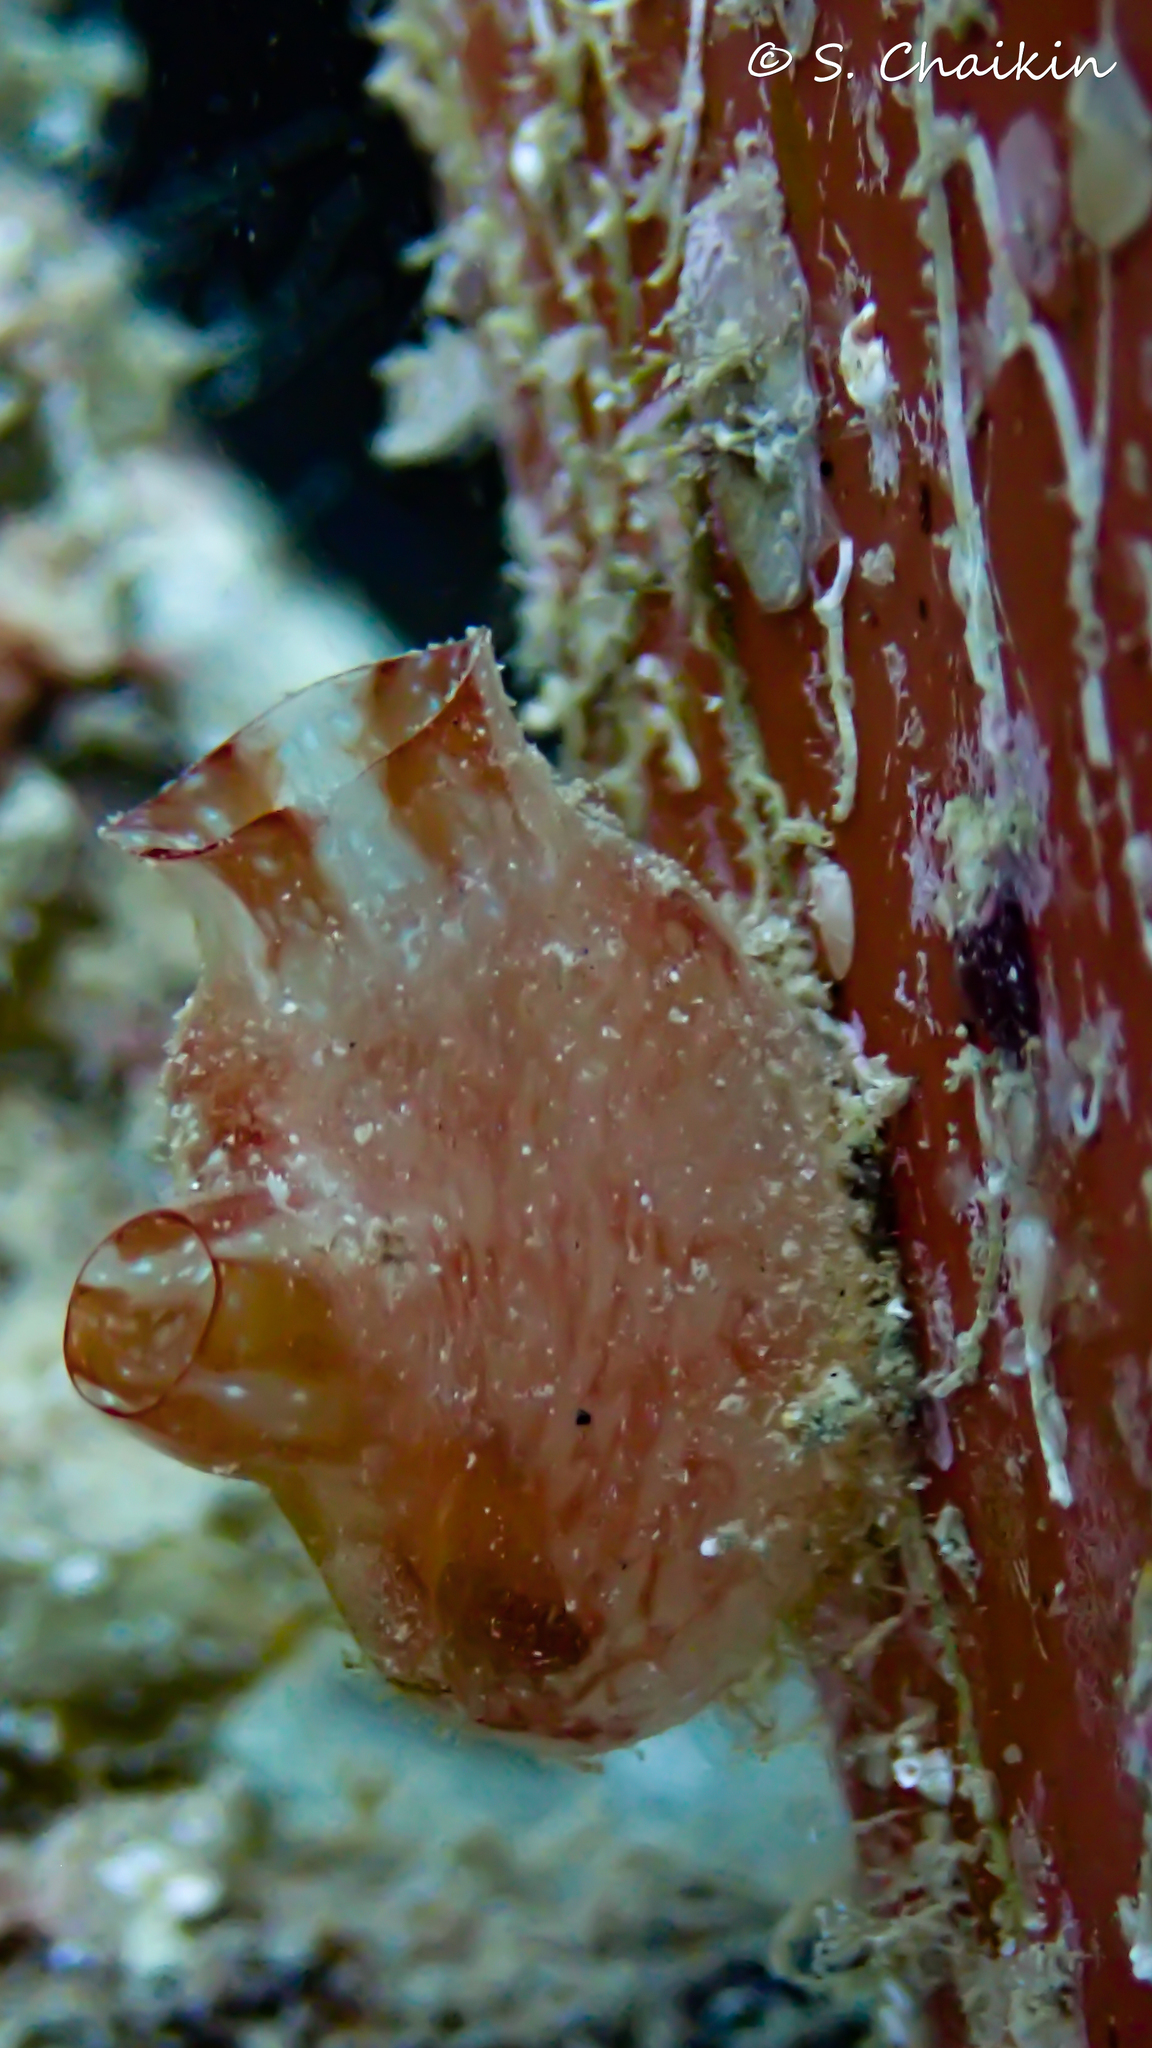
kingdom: Animalia
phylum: Chordata
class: Ascidiacea
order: Stolidobranchia
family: Pyuridae
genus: Herdmania
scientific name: Herdmania momus
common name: Red-throated ascidian
